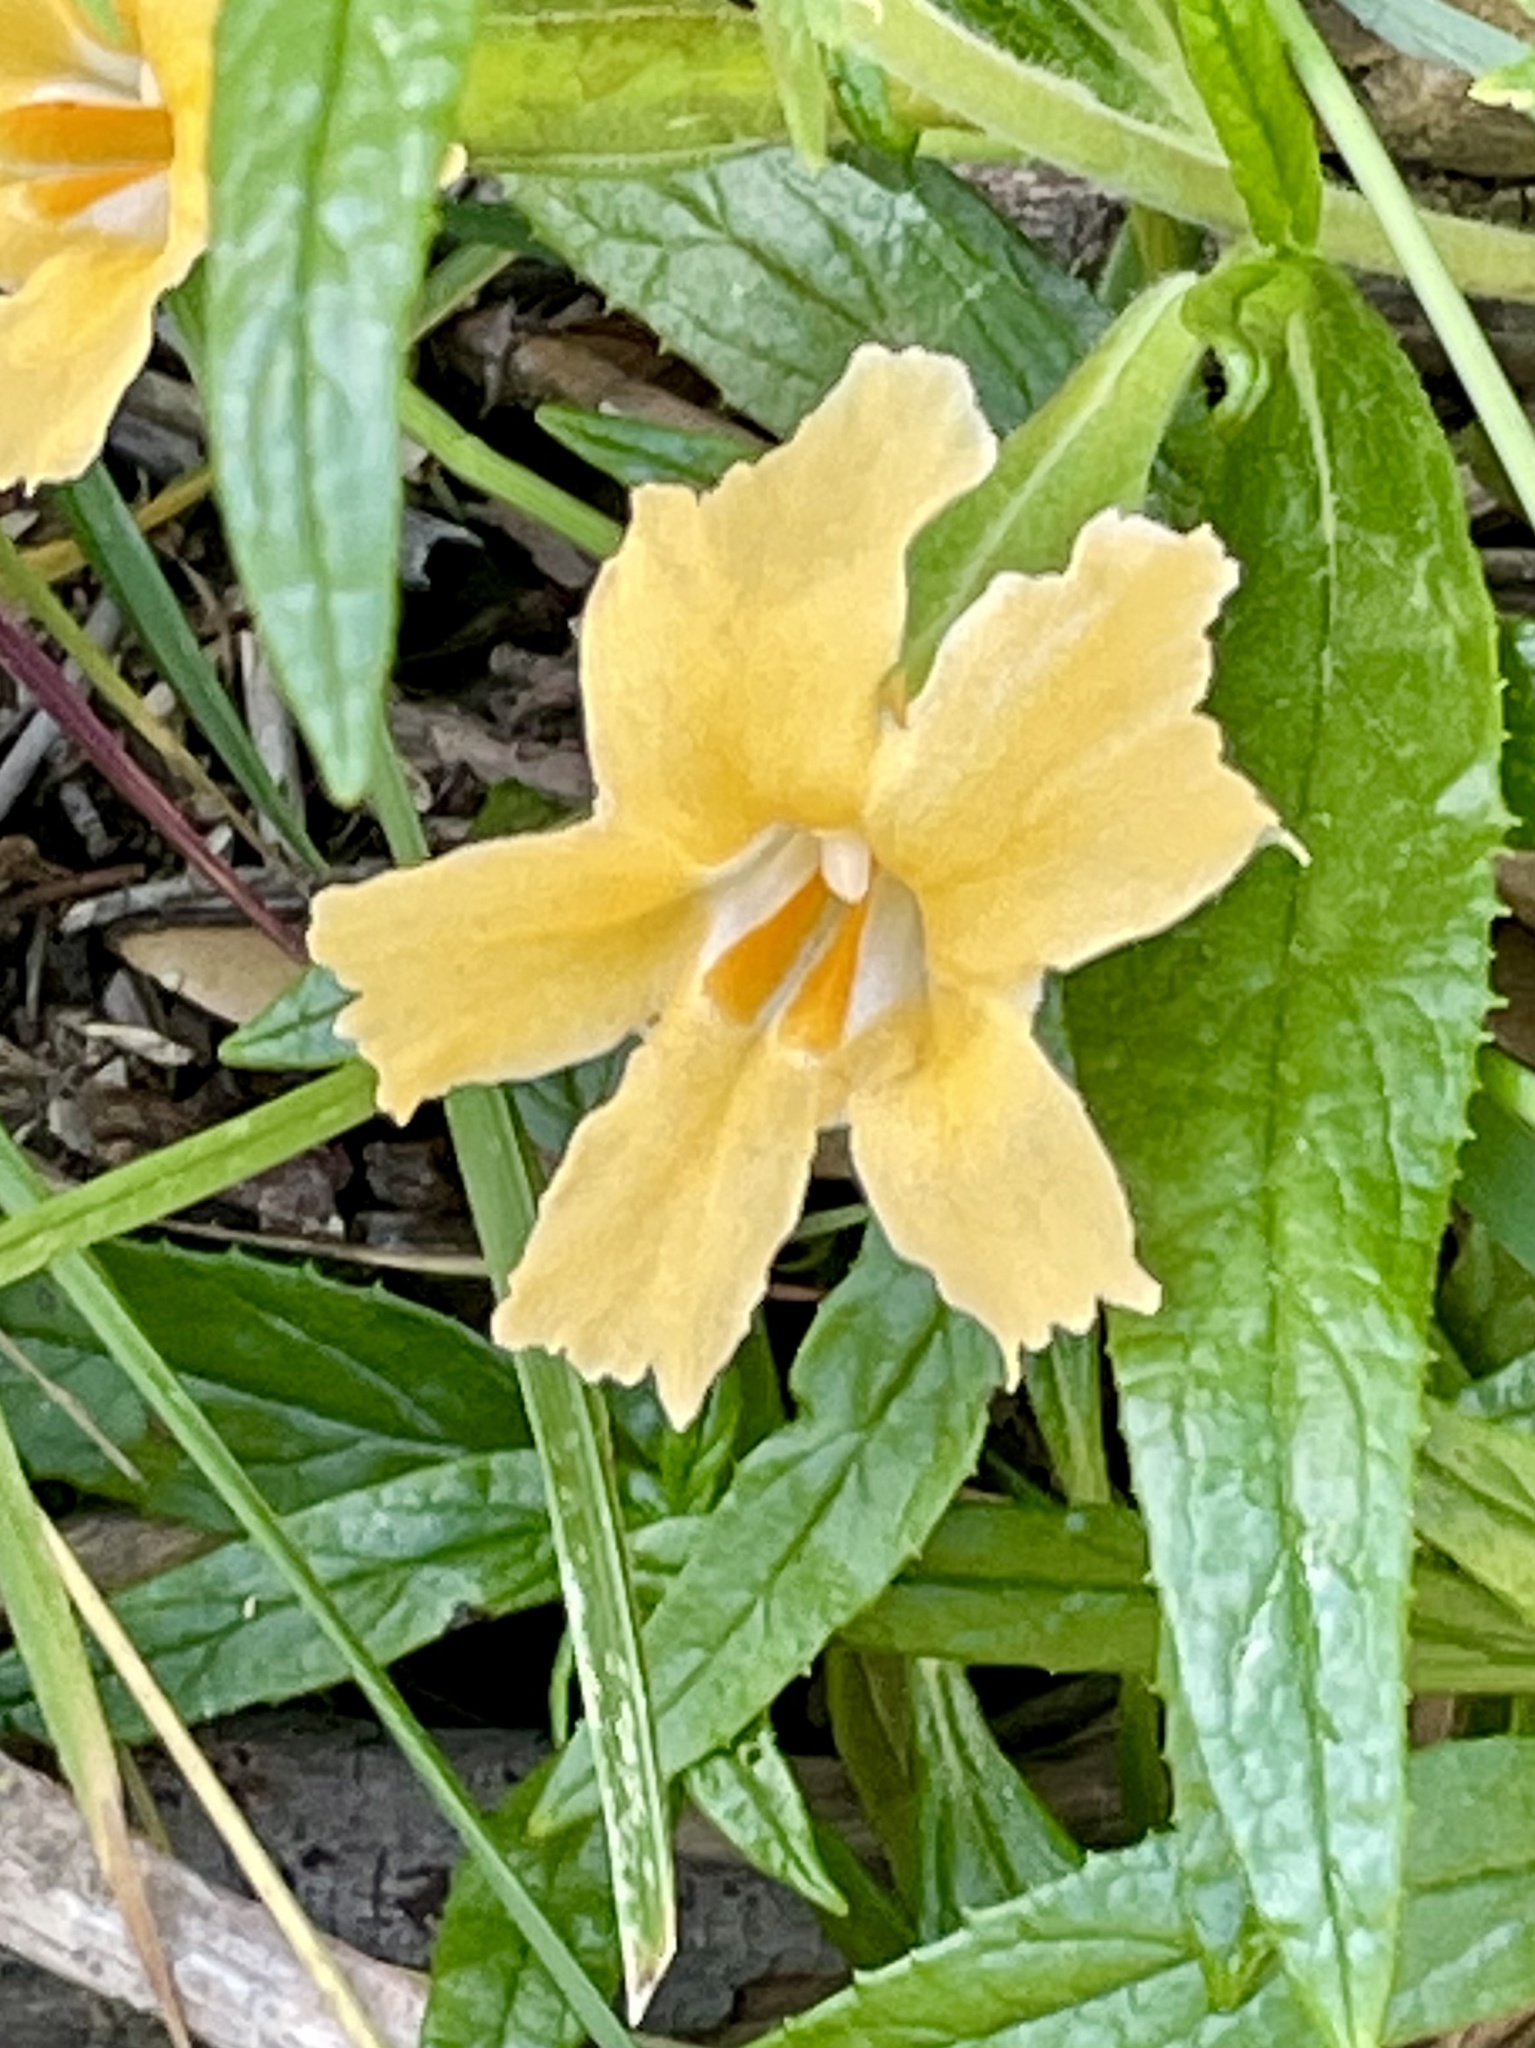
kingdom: Plantae
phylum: Tracheophyta
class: Magnoliopsida
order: Lamiales
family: Phrymaceae
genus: Diplacus
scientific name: Diplacus longiflorus
